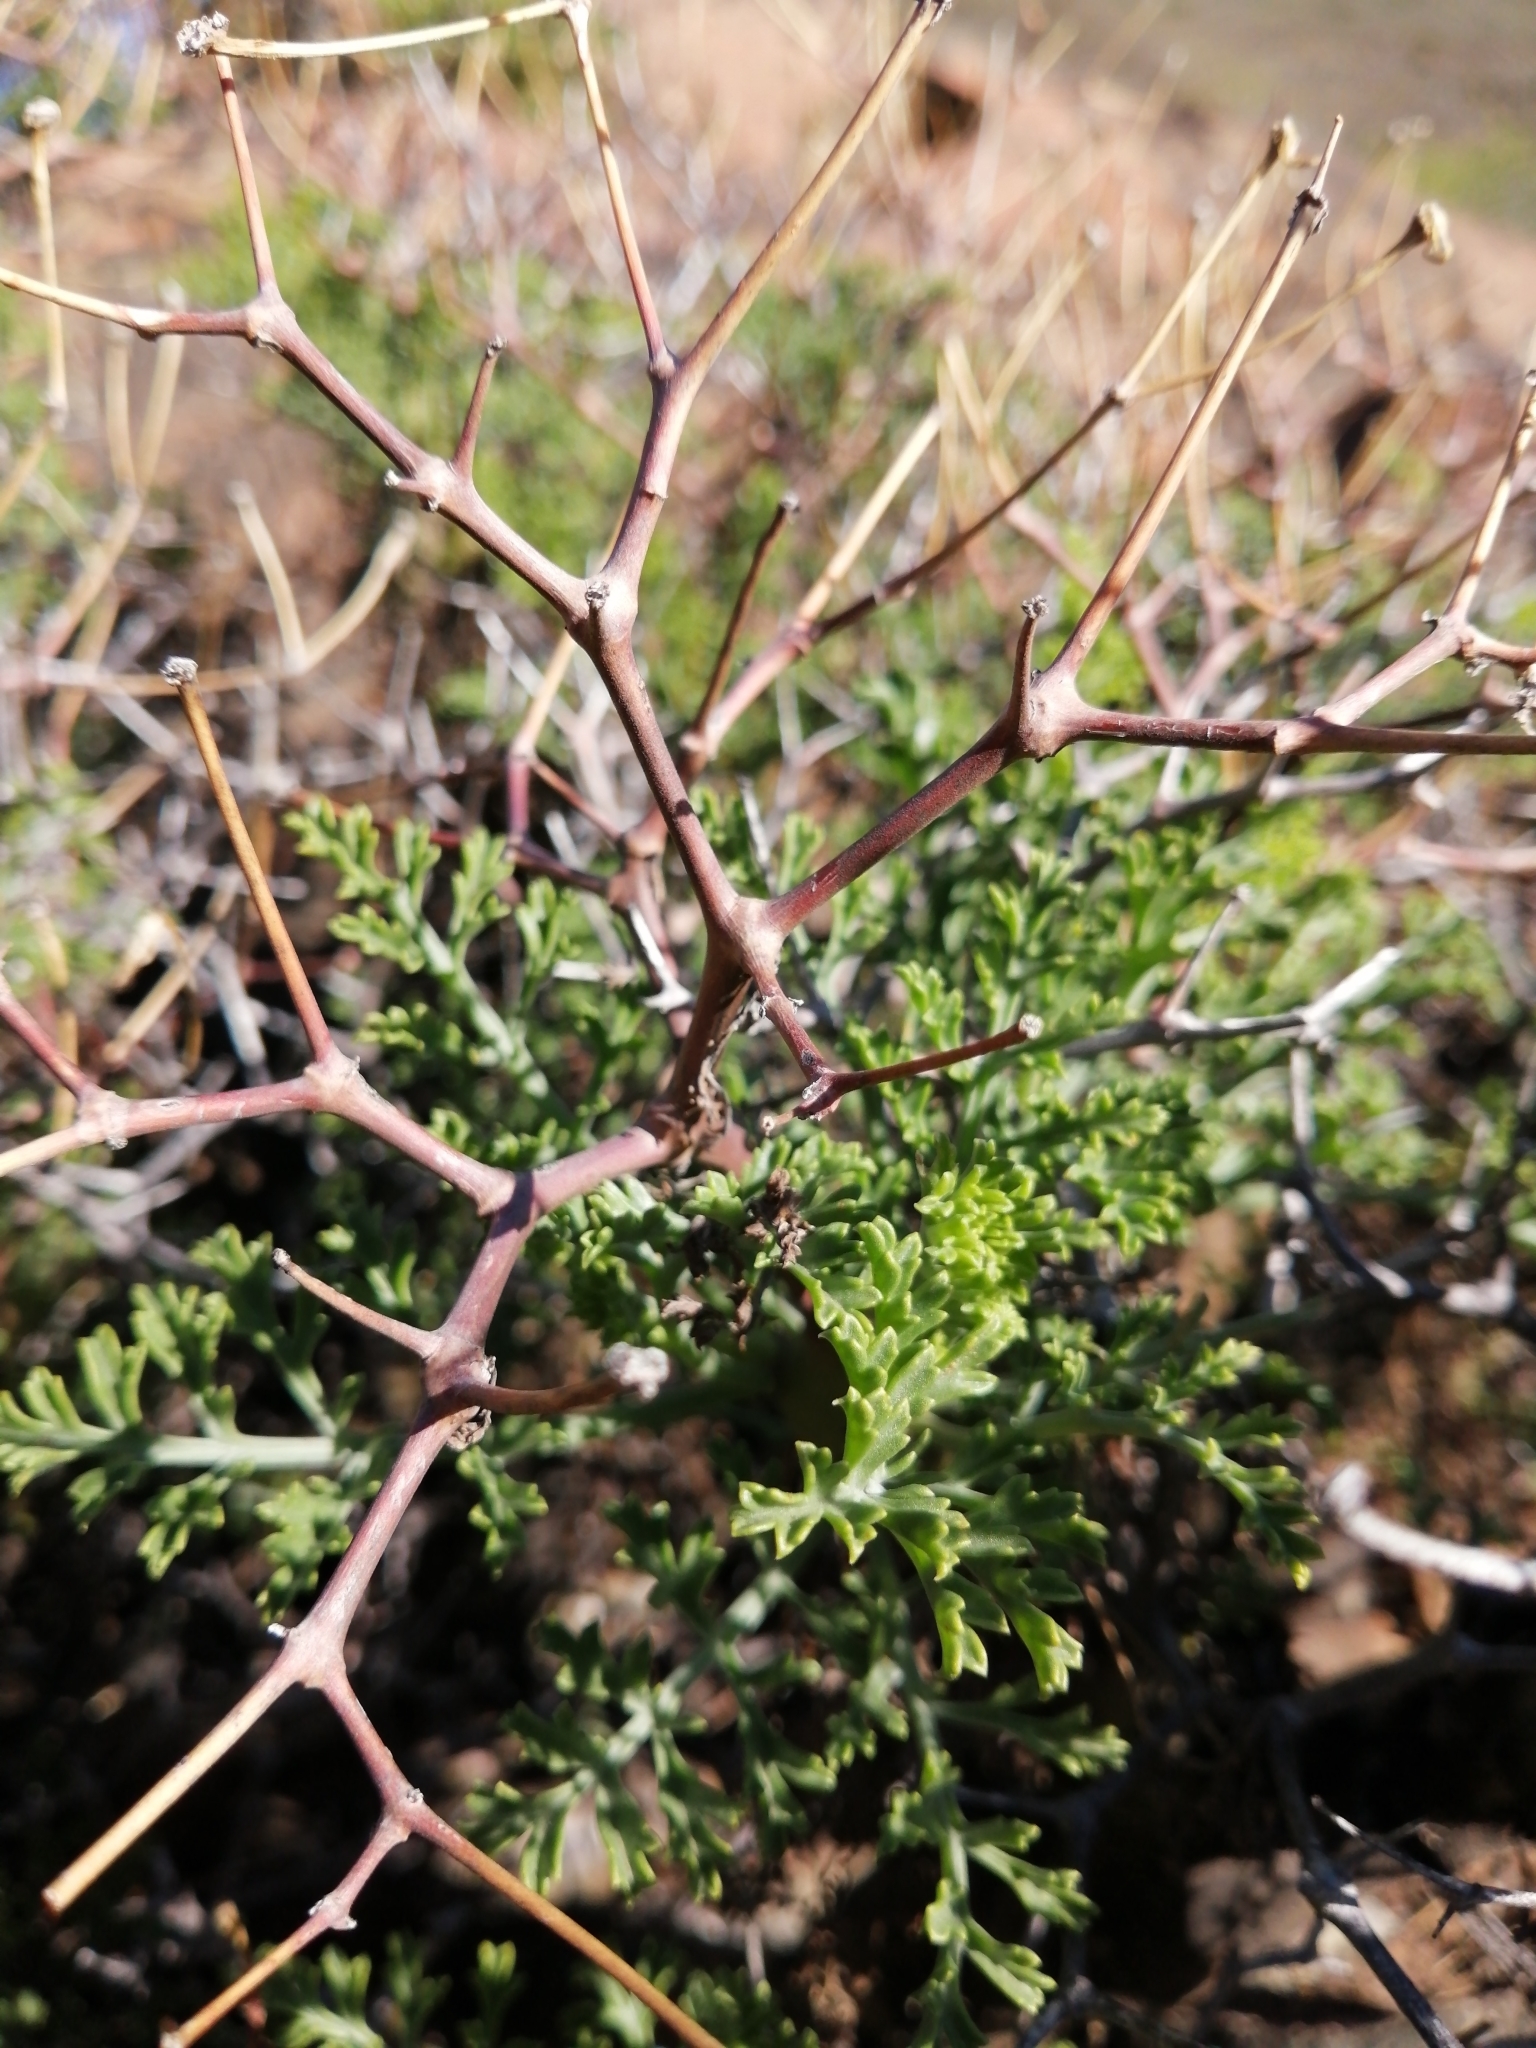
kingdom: Plantae
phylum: Tracheophyta
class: Magnoliopsida
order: Geraniales
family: Geraniaceae
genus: Pelargonium
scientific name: Pelargonium crithmifolium
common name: Samphire-leaf pelargonium
